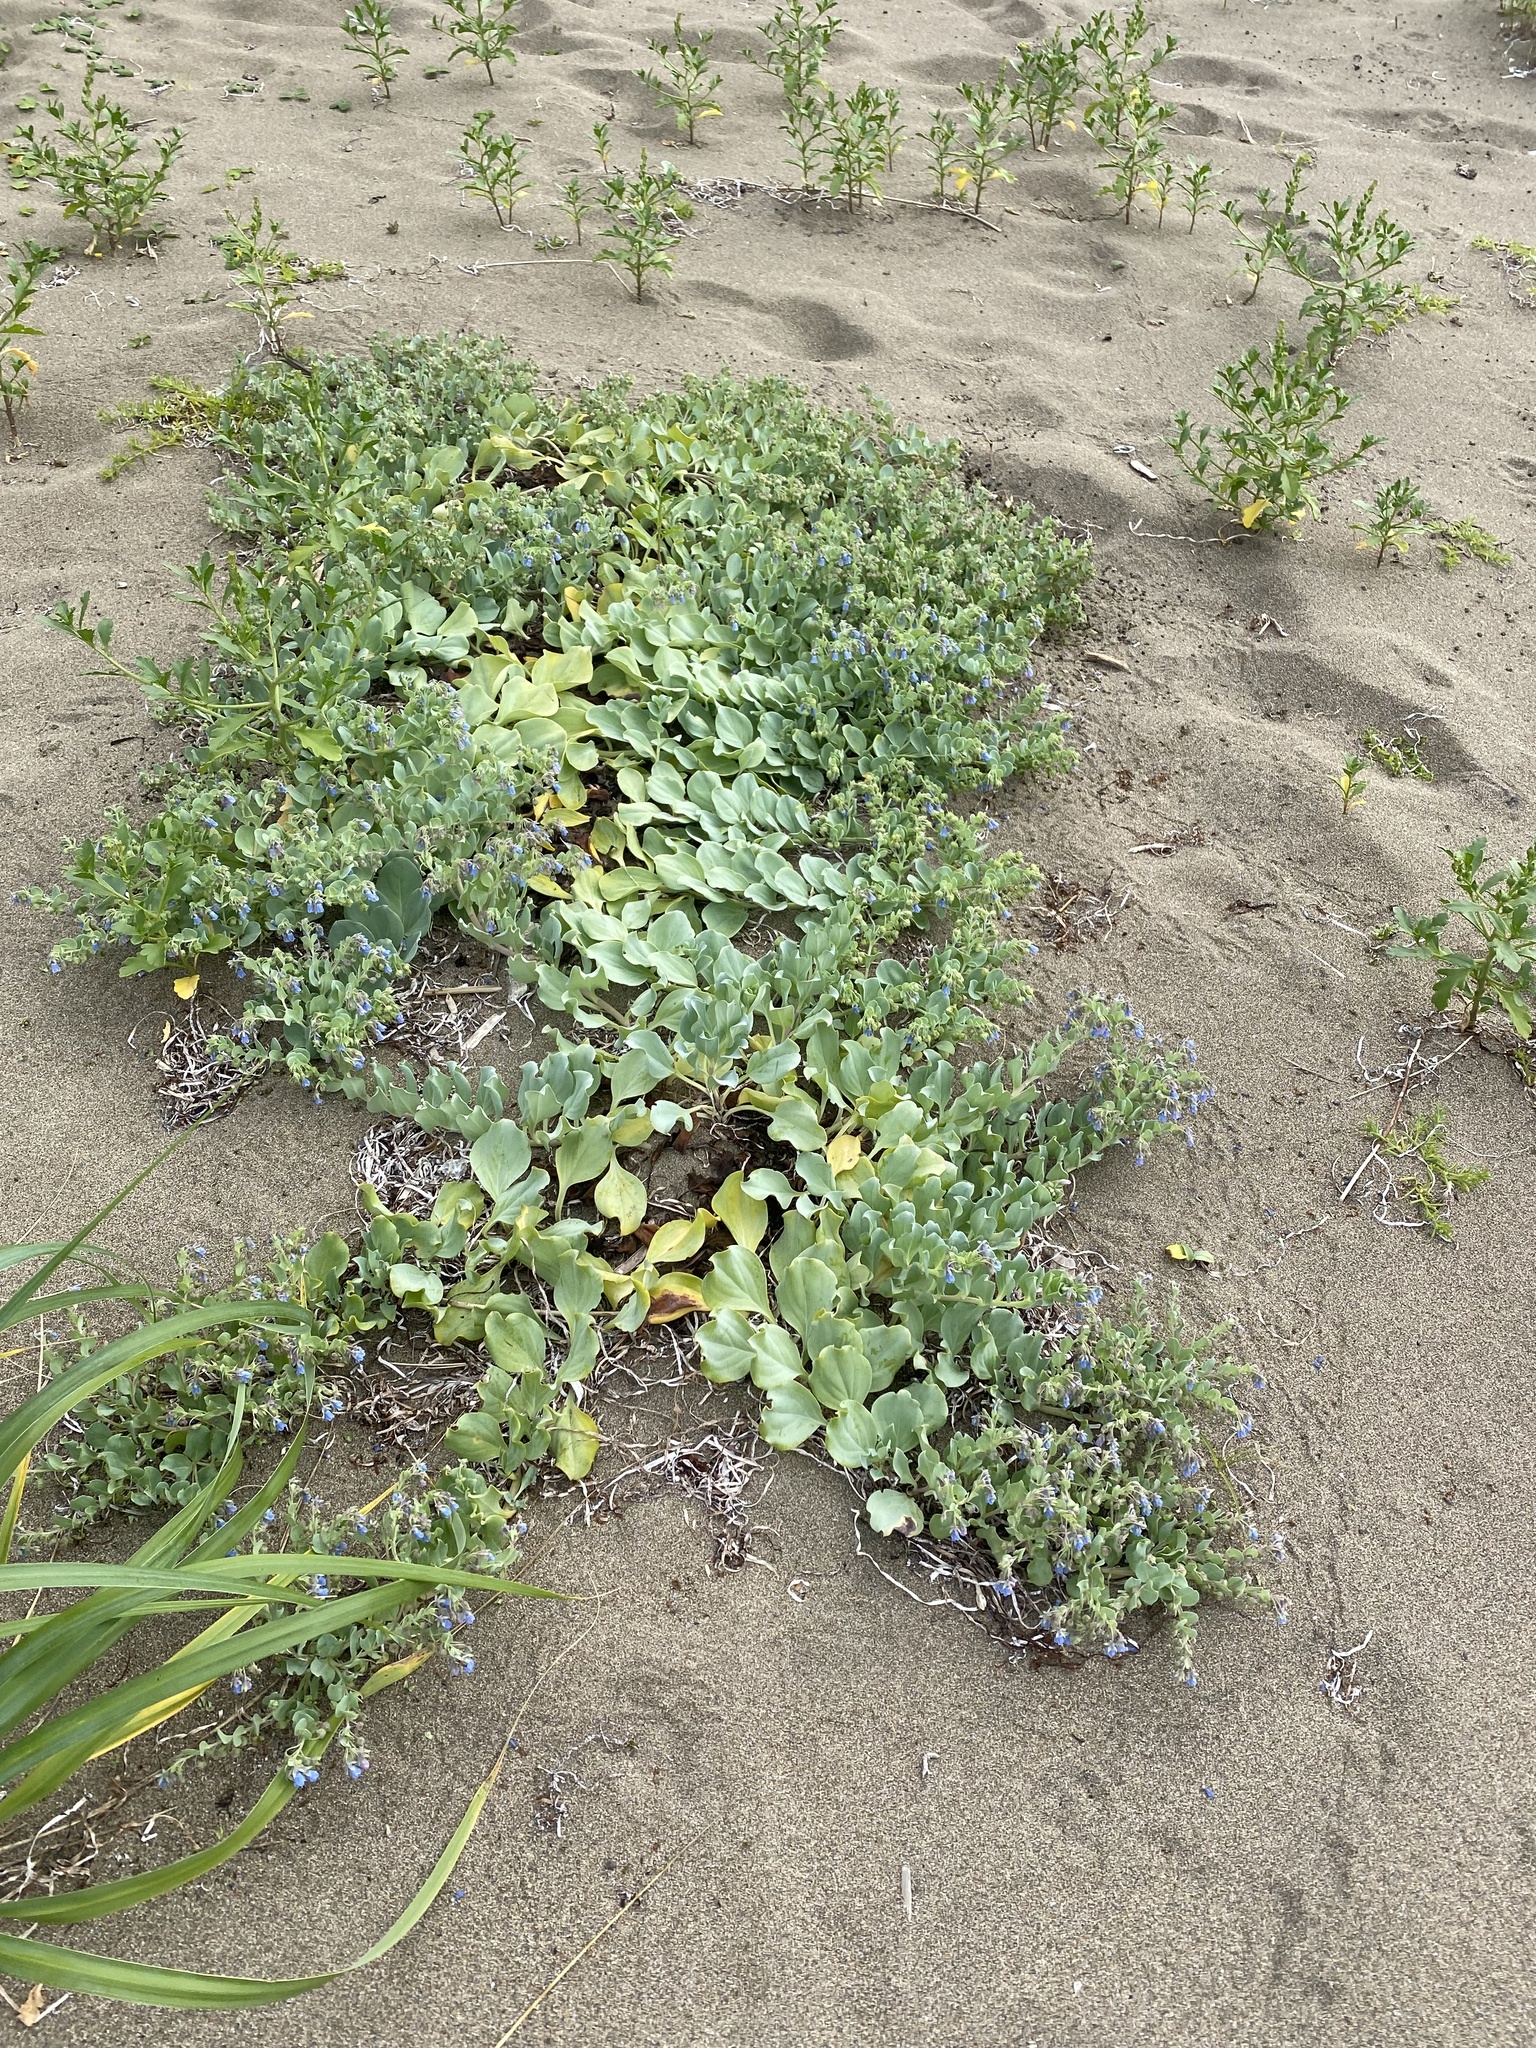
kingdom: Plantae
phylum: Tracheophyta
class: Magnoliopsida
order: Boraginales
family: Boraginaceae
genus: Mertensia
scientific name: Mertensia maritima
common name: Oysterplant
